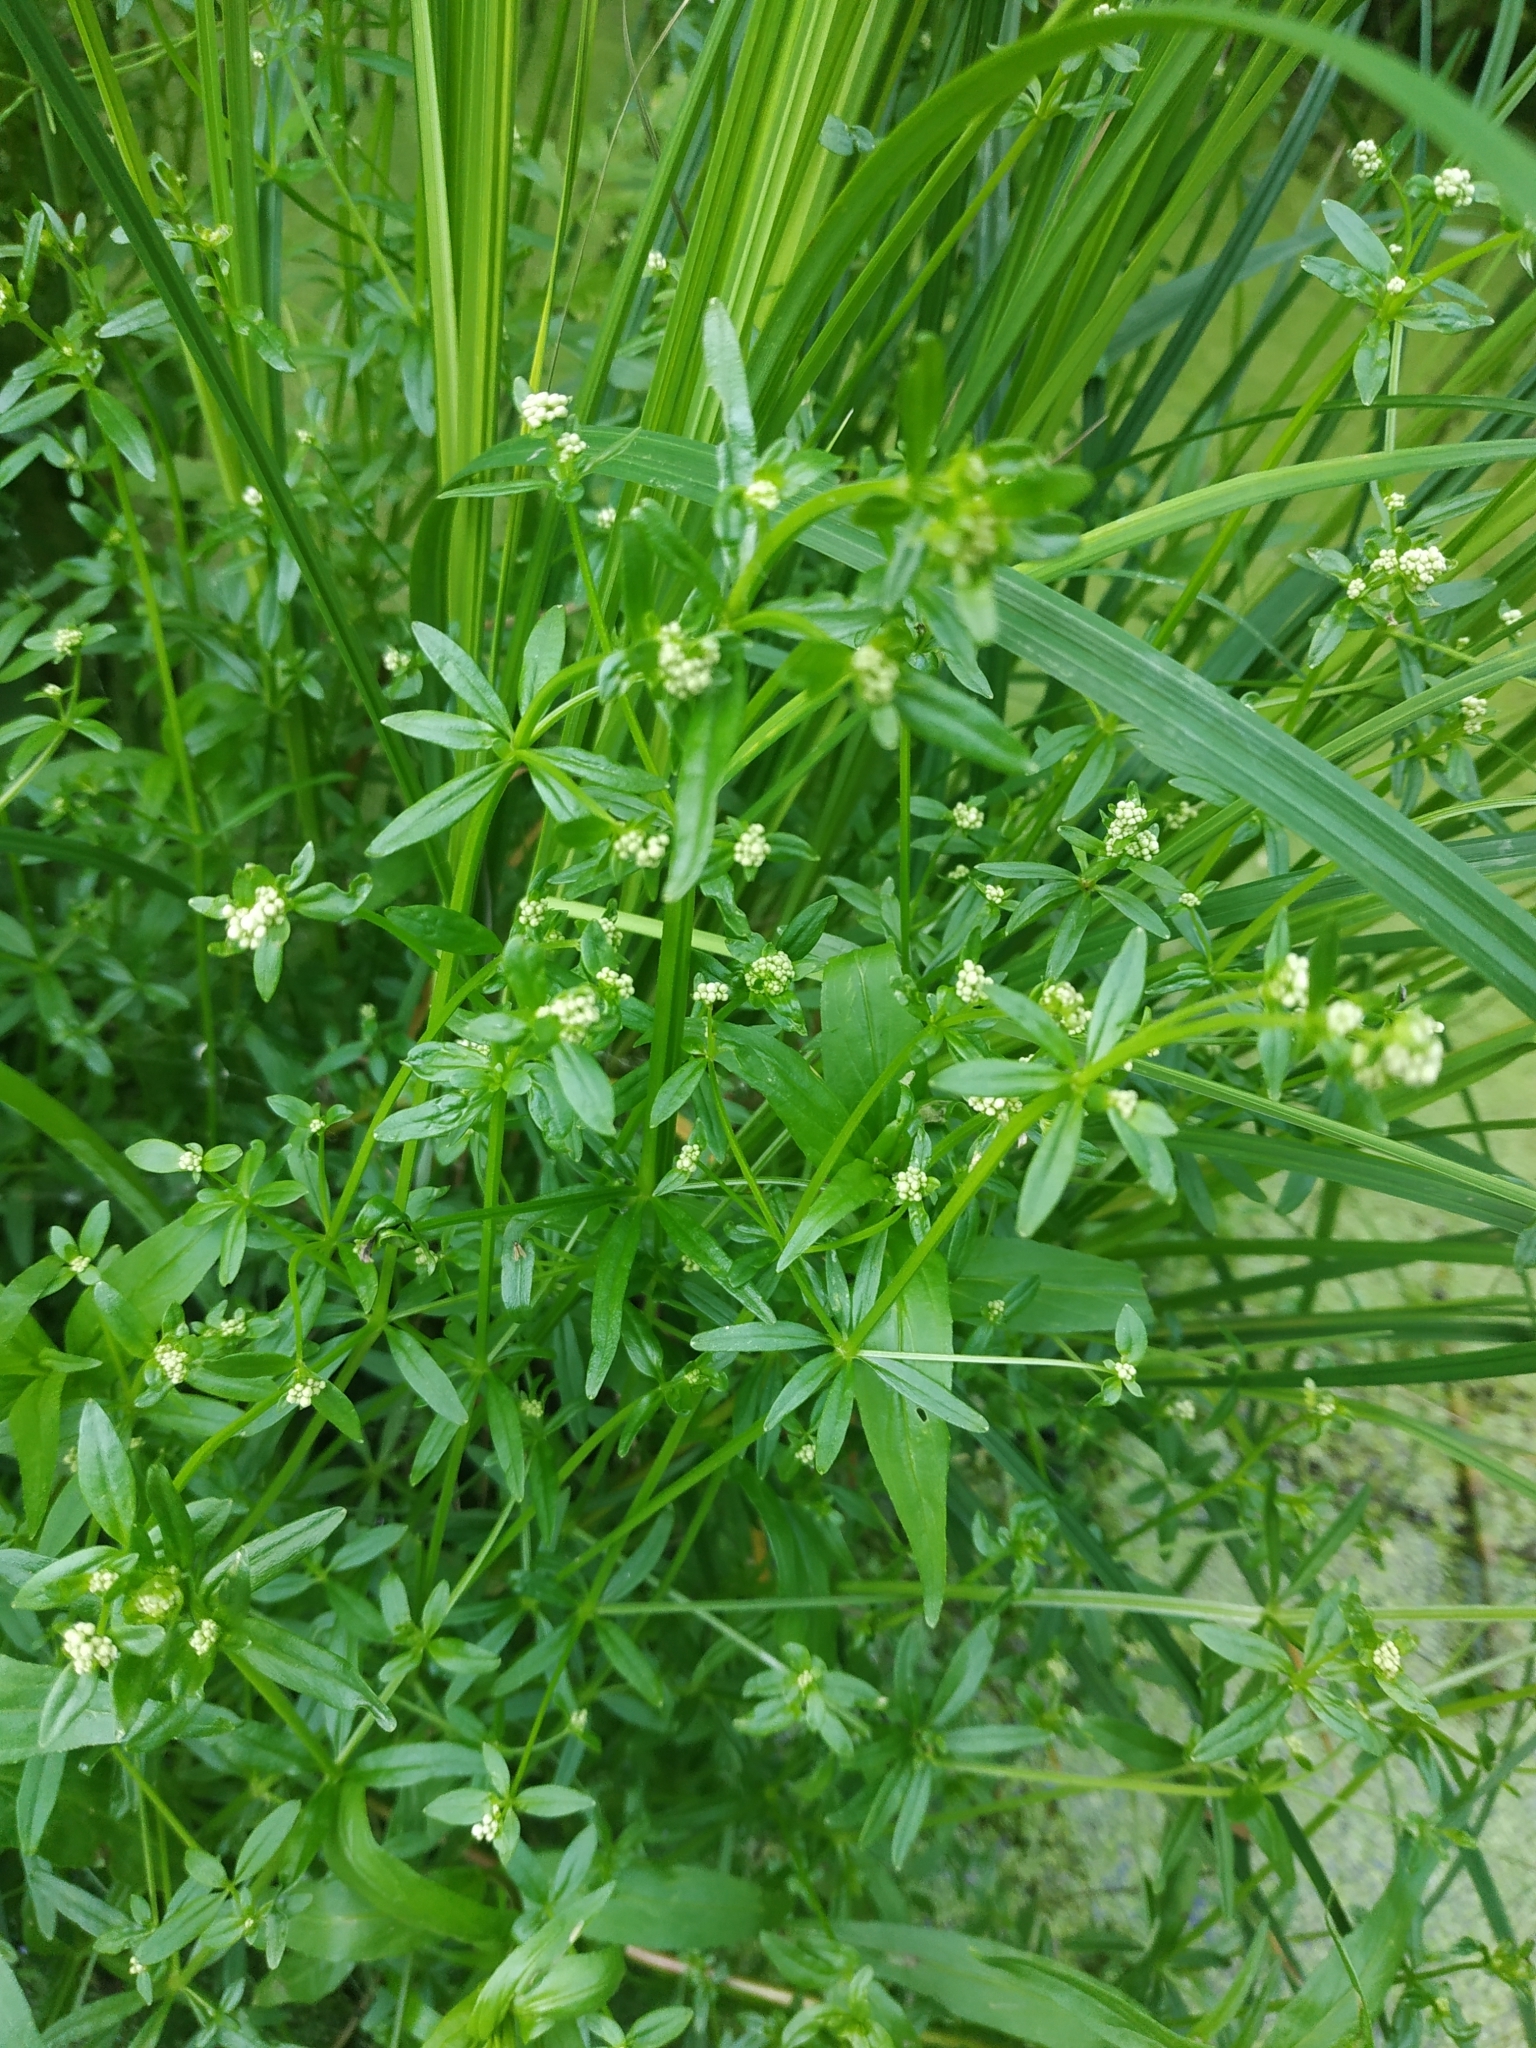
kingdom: Plantae
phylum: Tracheophyta
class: Magnoliopsida
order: Gentianales
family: Rubiaceae
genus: Galium
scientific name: Galium palustre
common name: Common marsh-bedstraw
